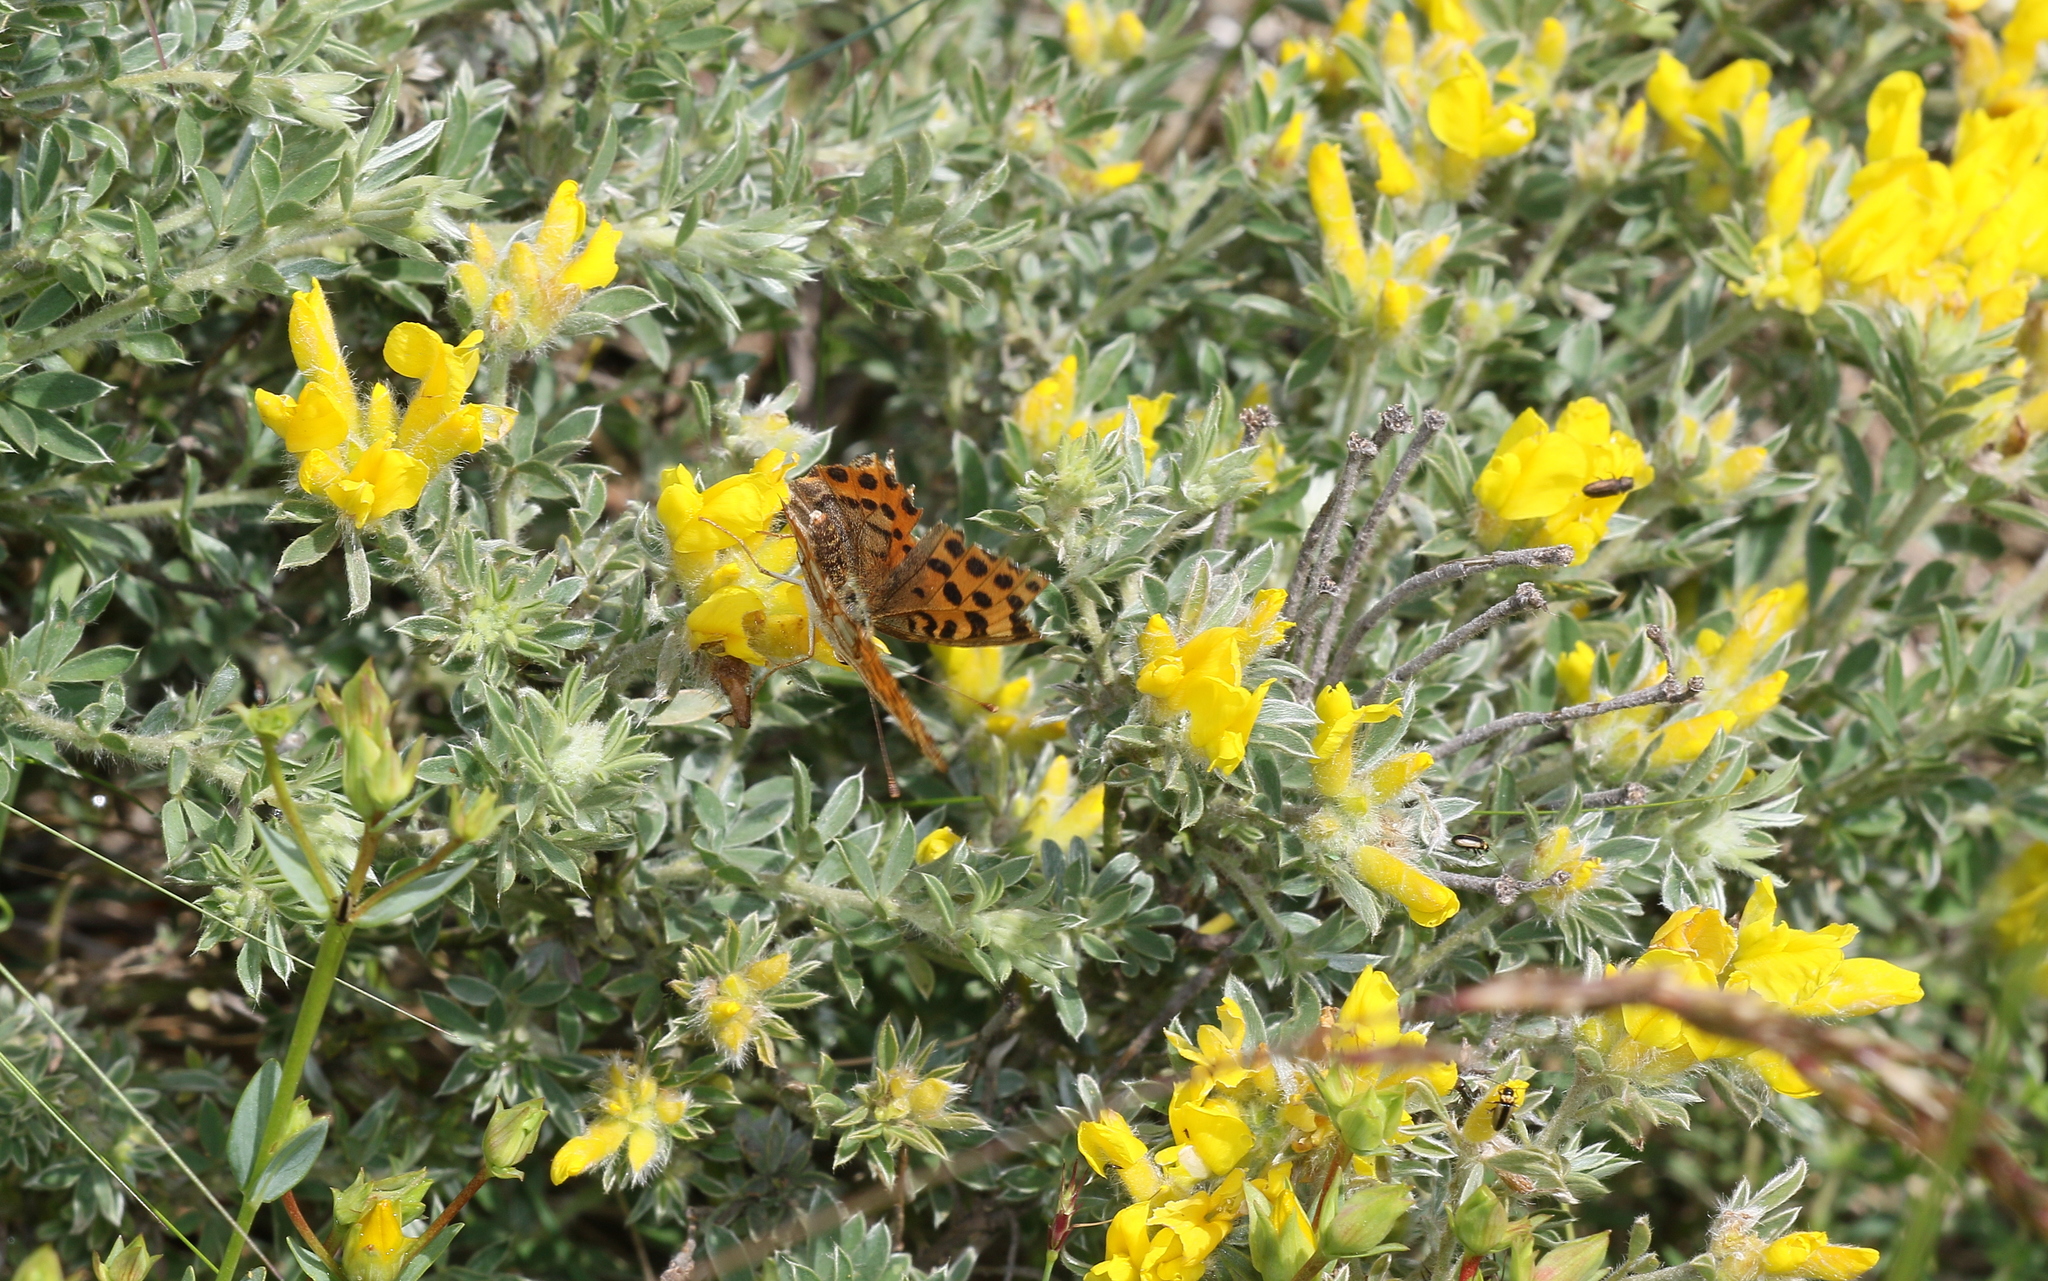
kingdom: Animalia
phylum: Arthropoda
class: Insecta
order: Lepidoptera
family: Nymphalidae
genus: Issoria
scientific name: Issoria lathonia
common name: Queen of spain fritillary
